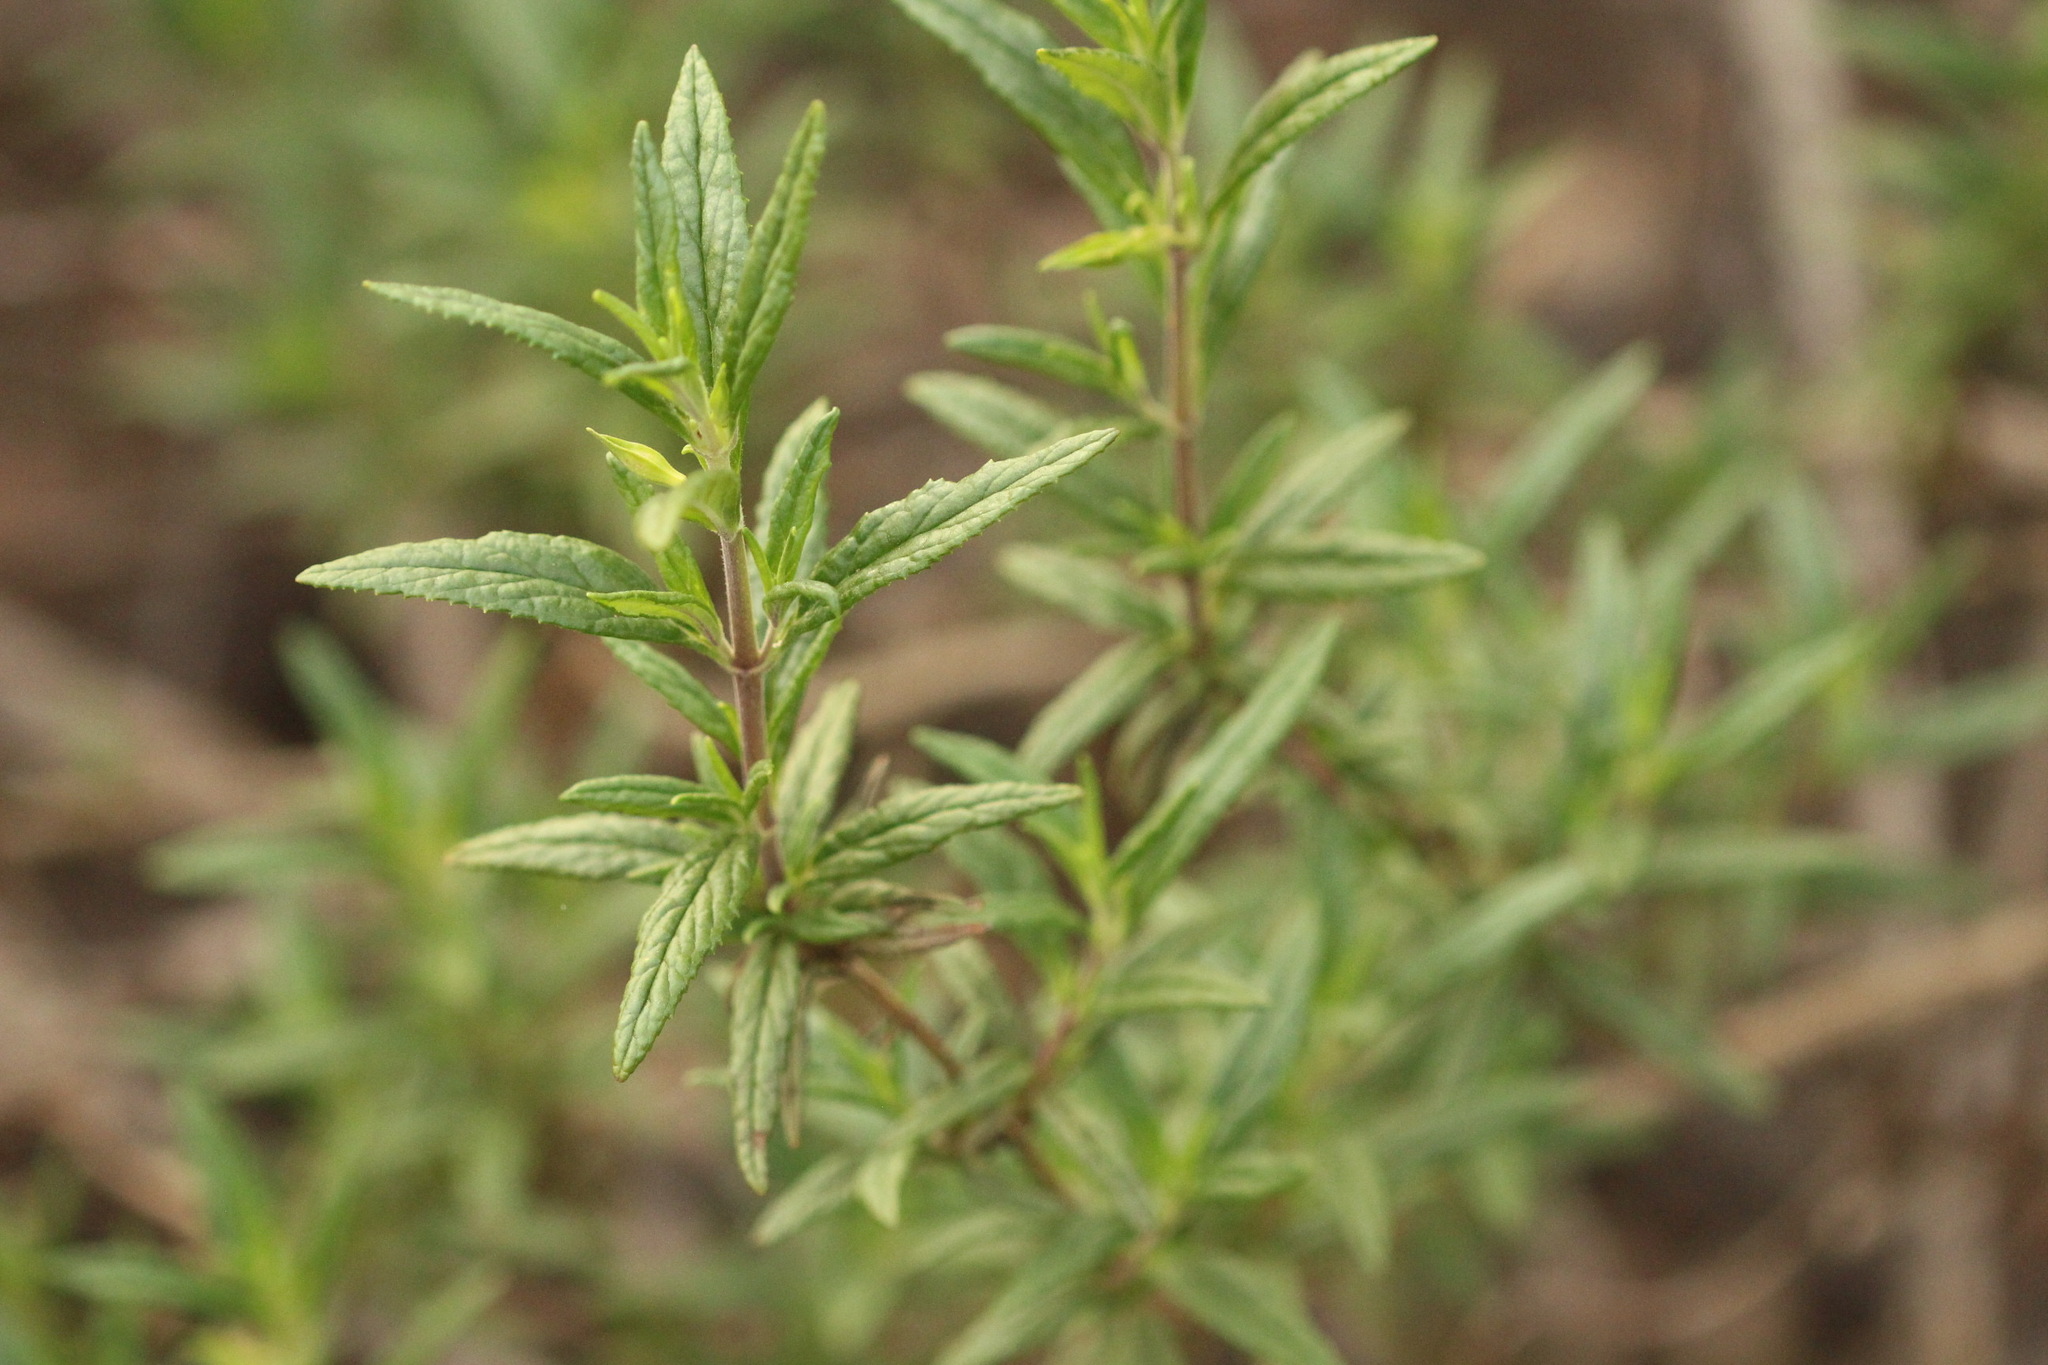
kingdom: Plantae
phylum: Tracheophyta
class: Magnoliopsida
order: Lamiales
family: Phrymaceae
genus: Diplacus
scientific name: Diplacus aurantiacus
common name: Bush monkey-flower
